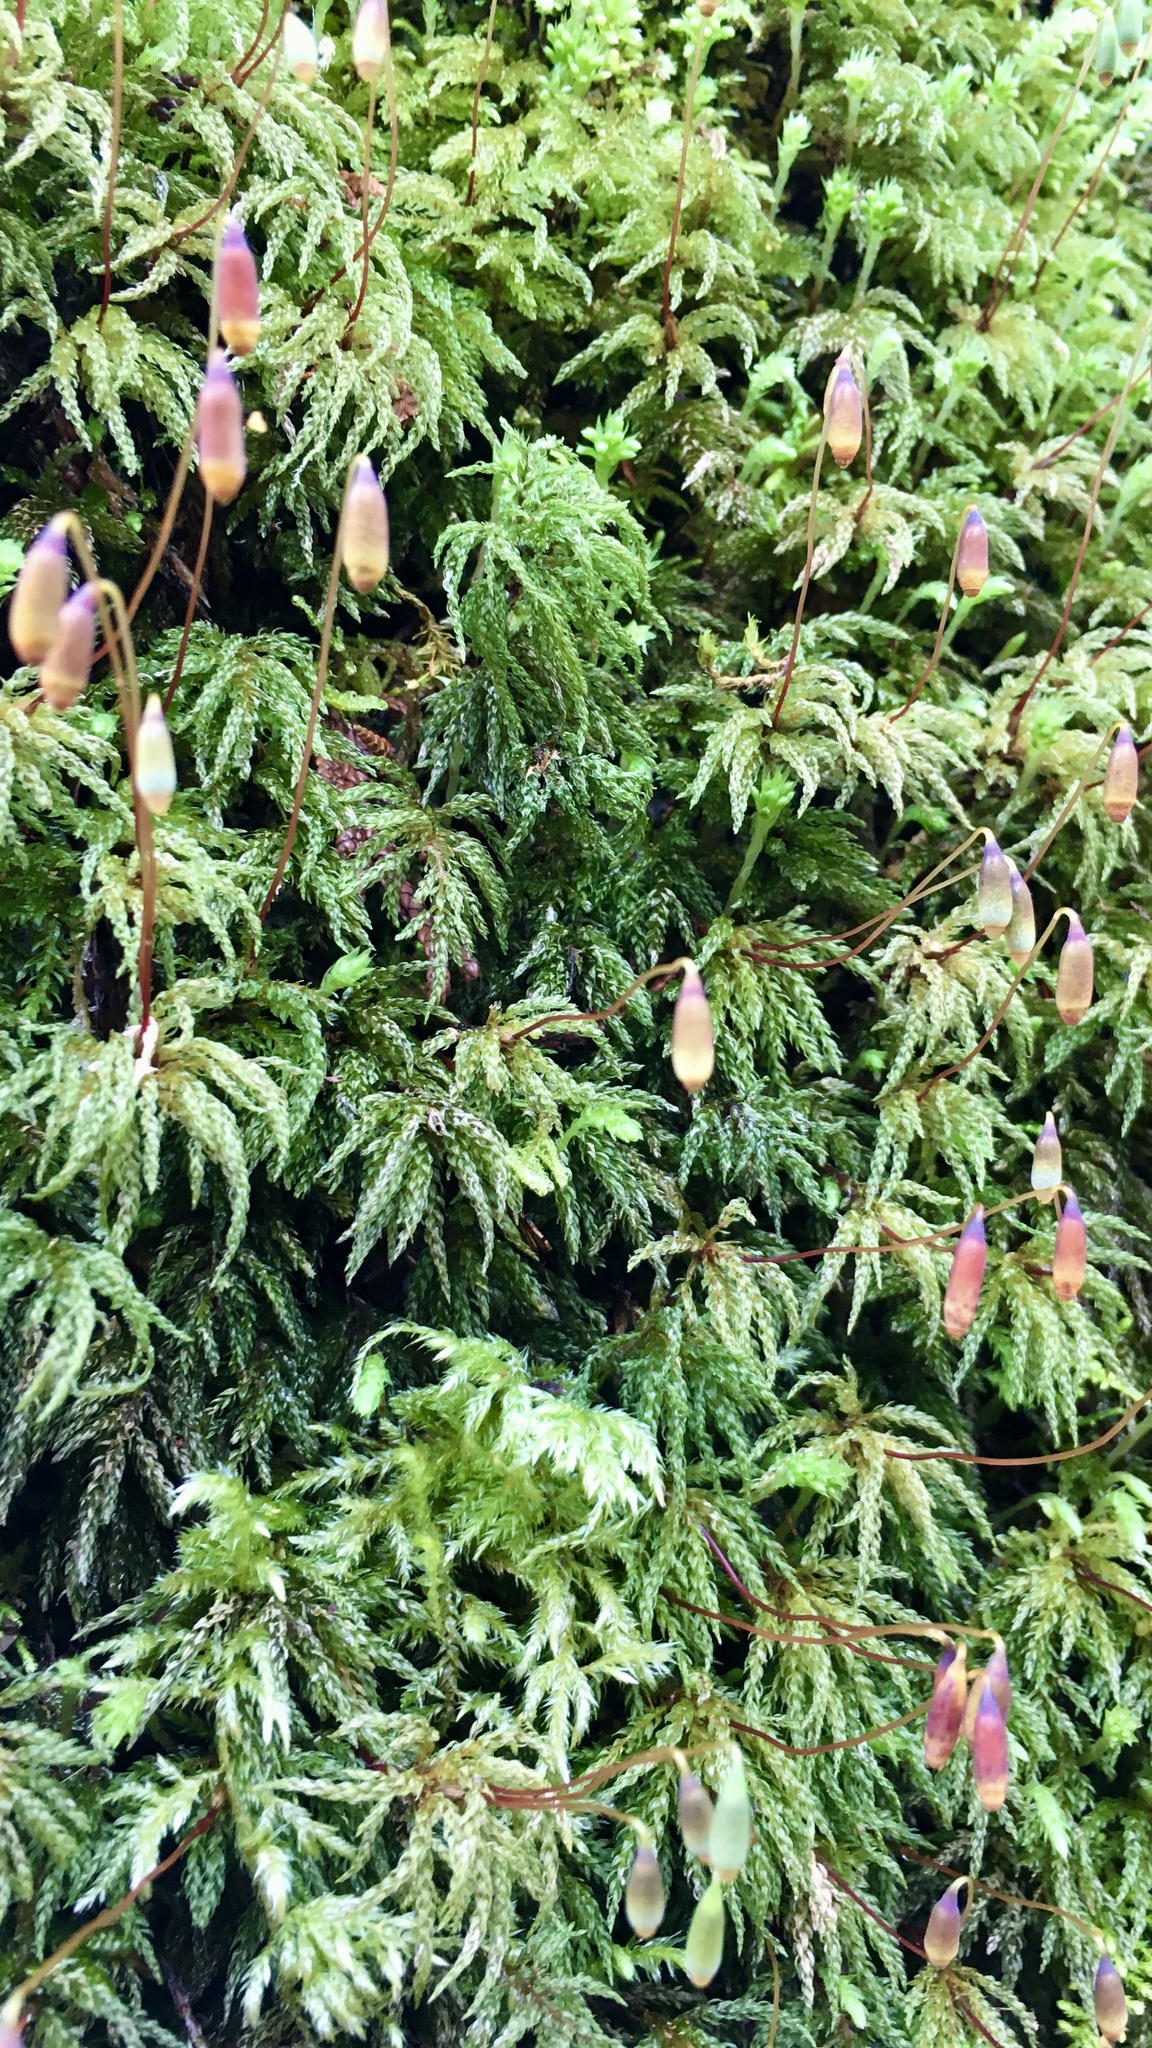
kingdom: Plantae
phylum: Bryophyta
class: Bryopsida
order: Bryales
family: Mniaceae
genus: Leucolepis
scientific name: Leucolepis acanthoneura
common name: Leucolepis umbrella moss
